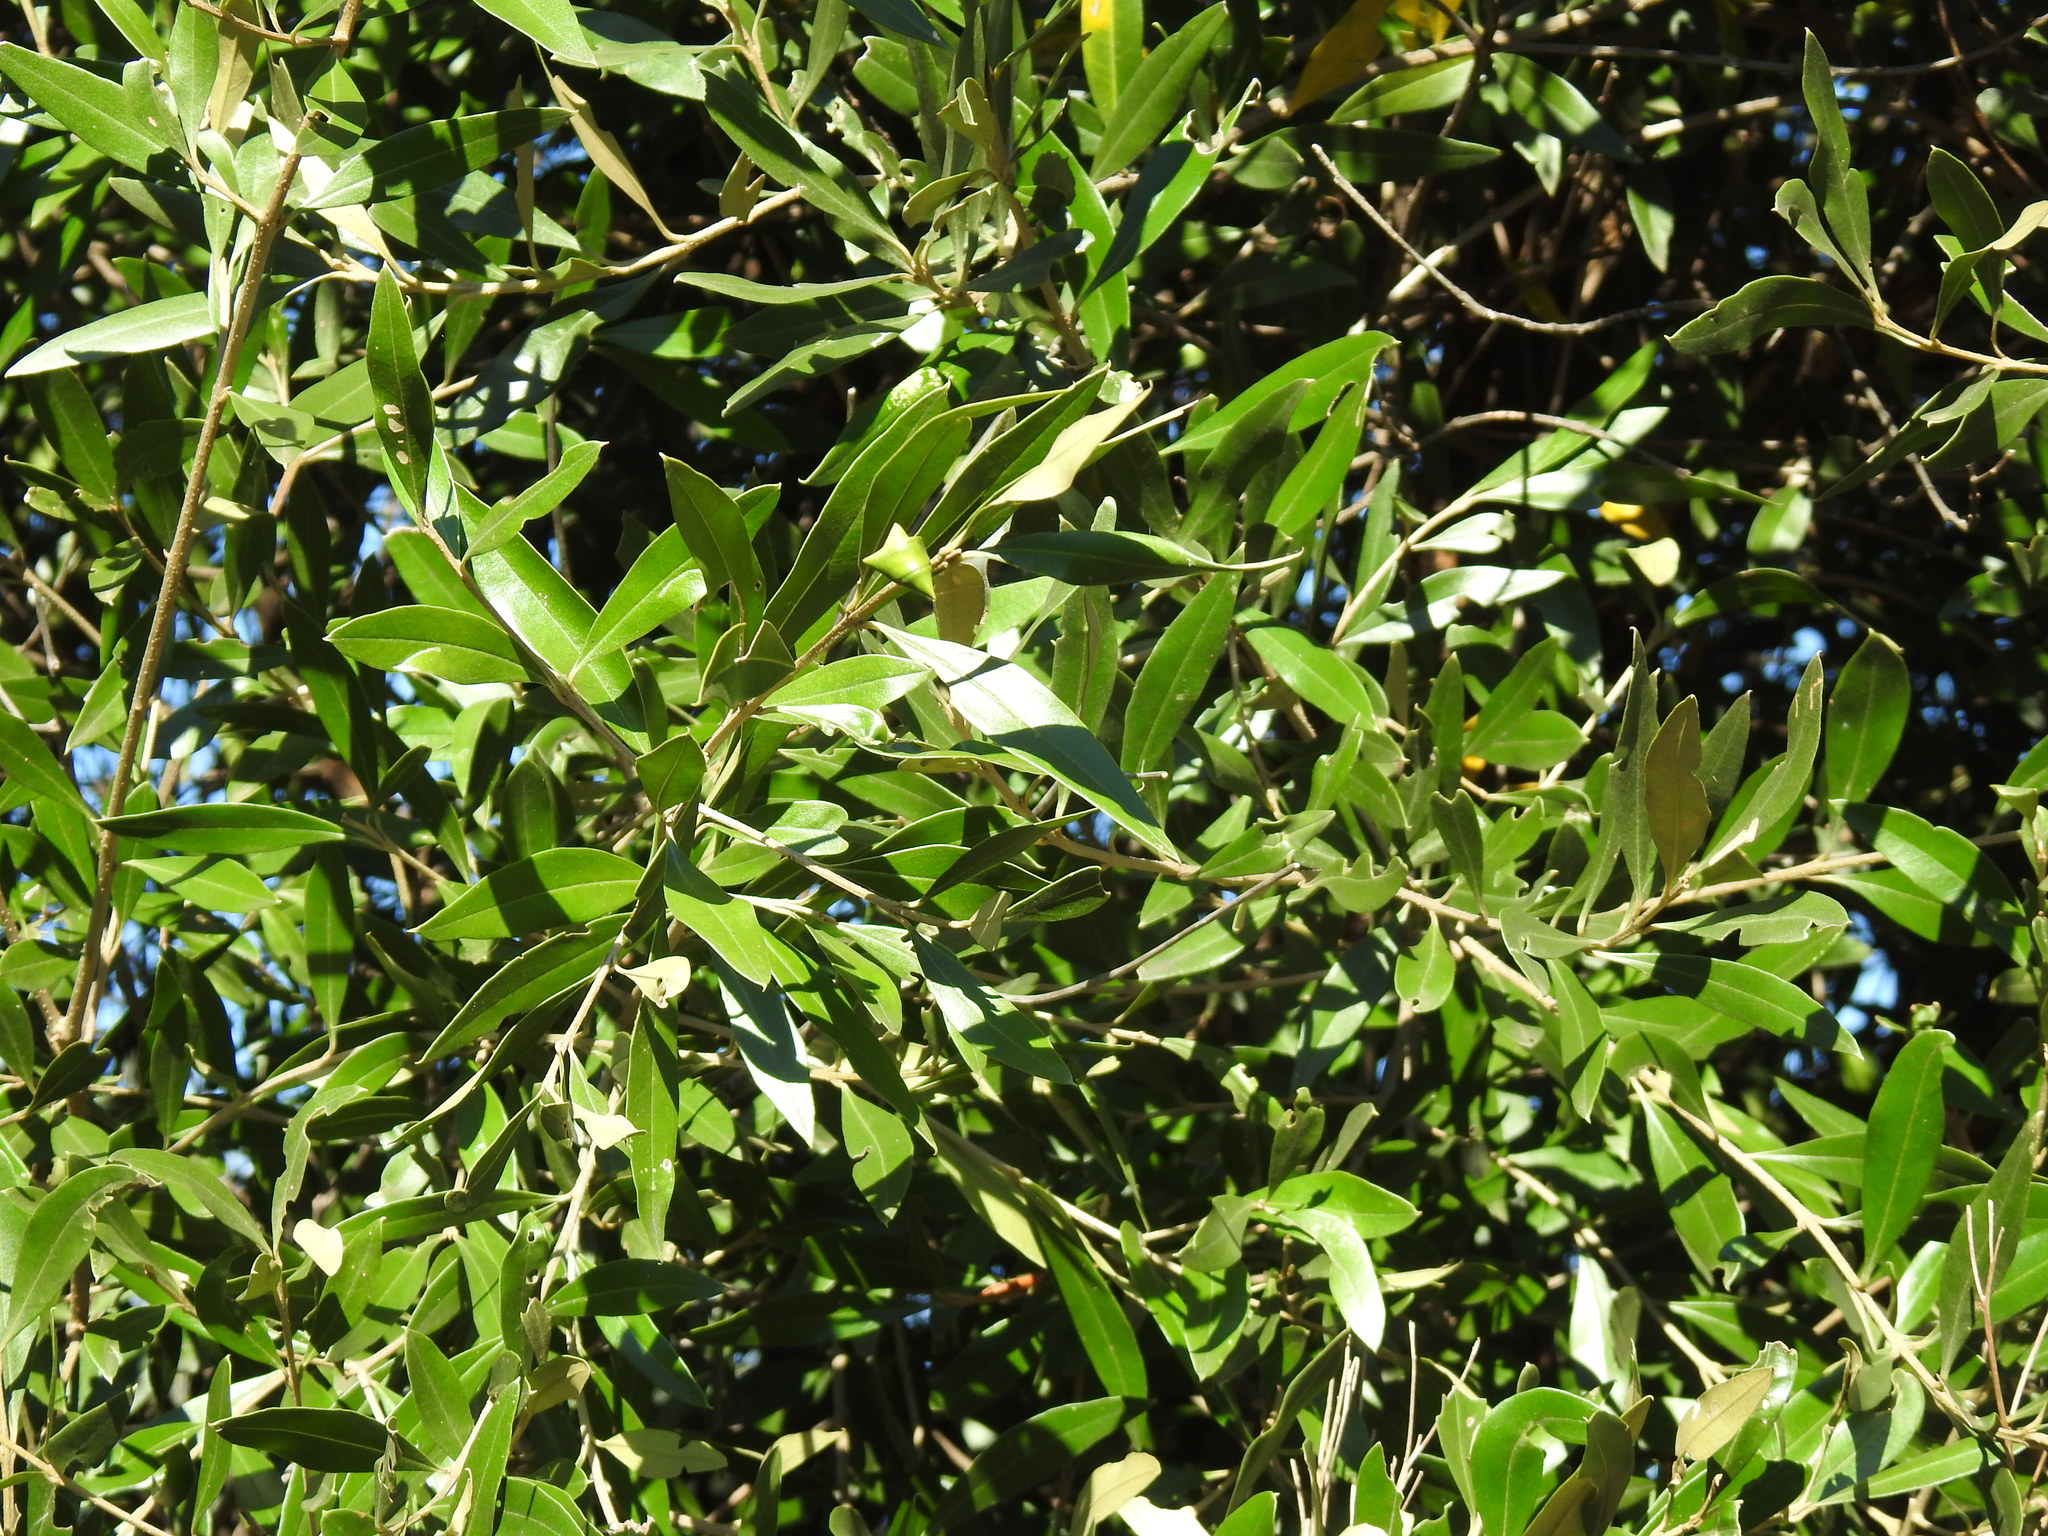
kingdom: Plantae
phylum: Tracheophyta
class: Magnoliopsida
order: Lamiales
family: Oleaceae
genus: Olea
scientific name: Olea europaea
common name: Olive
